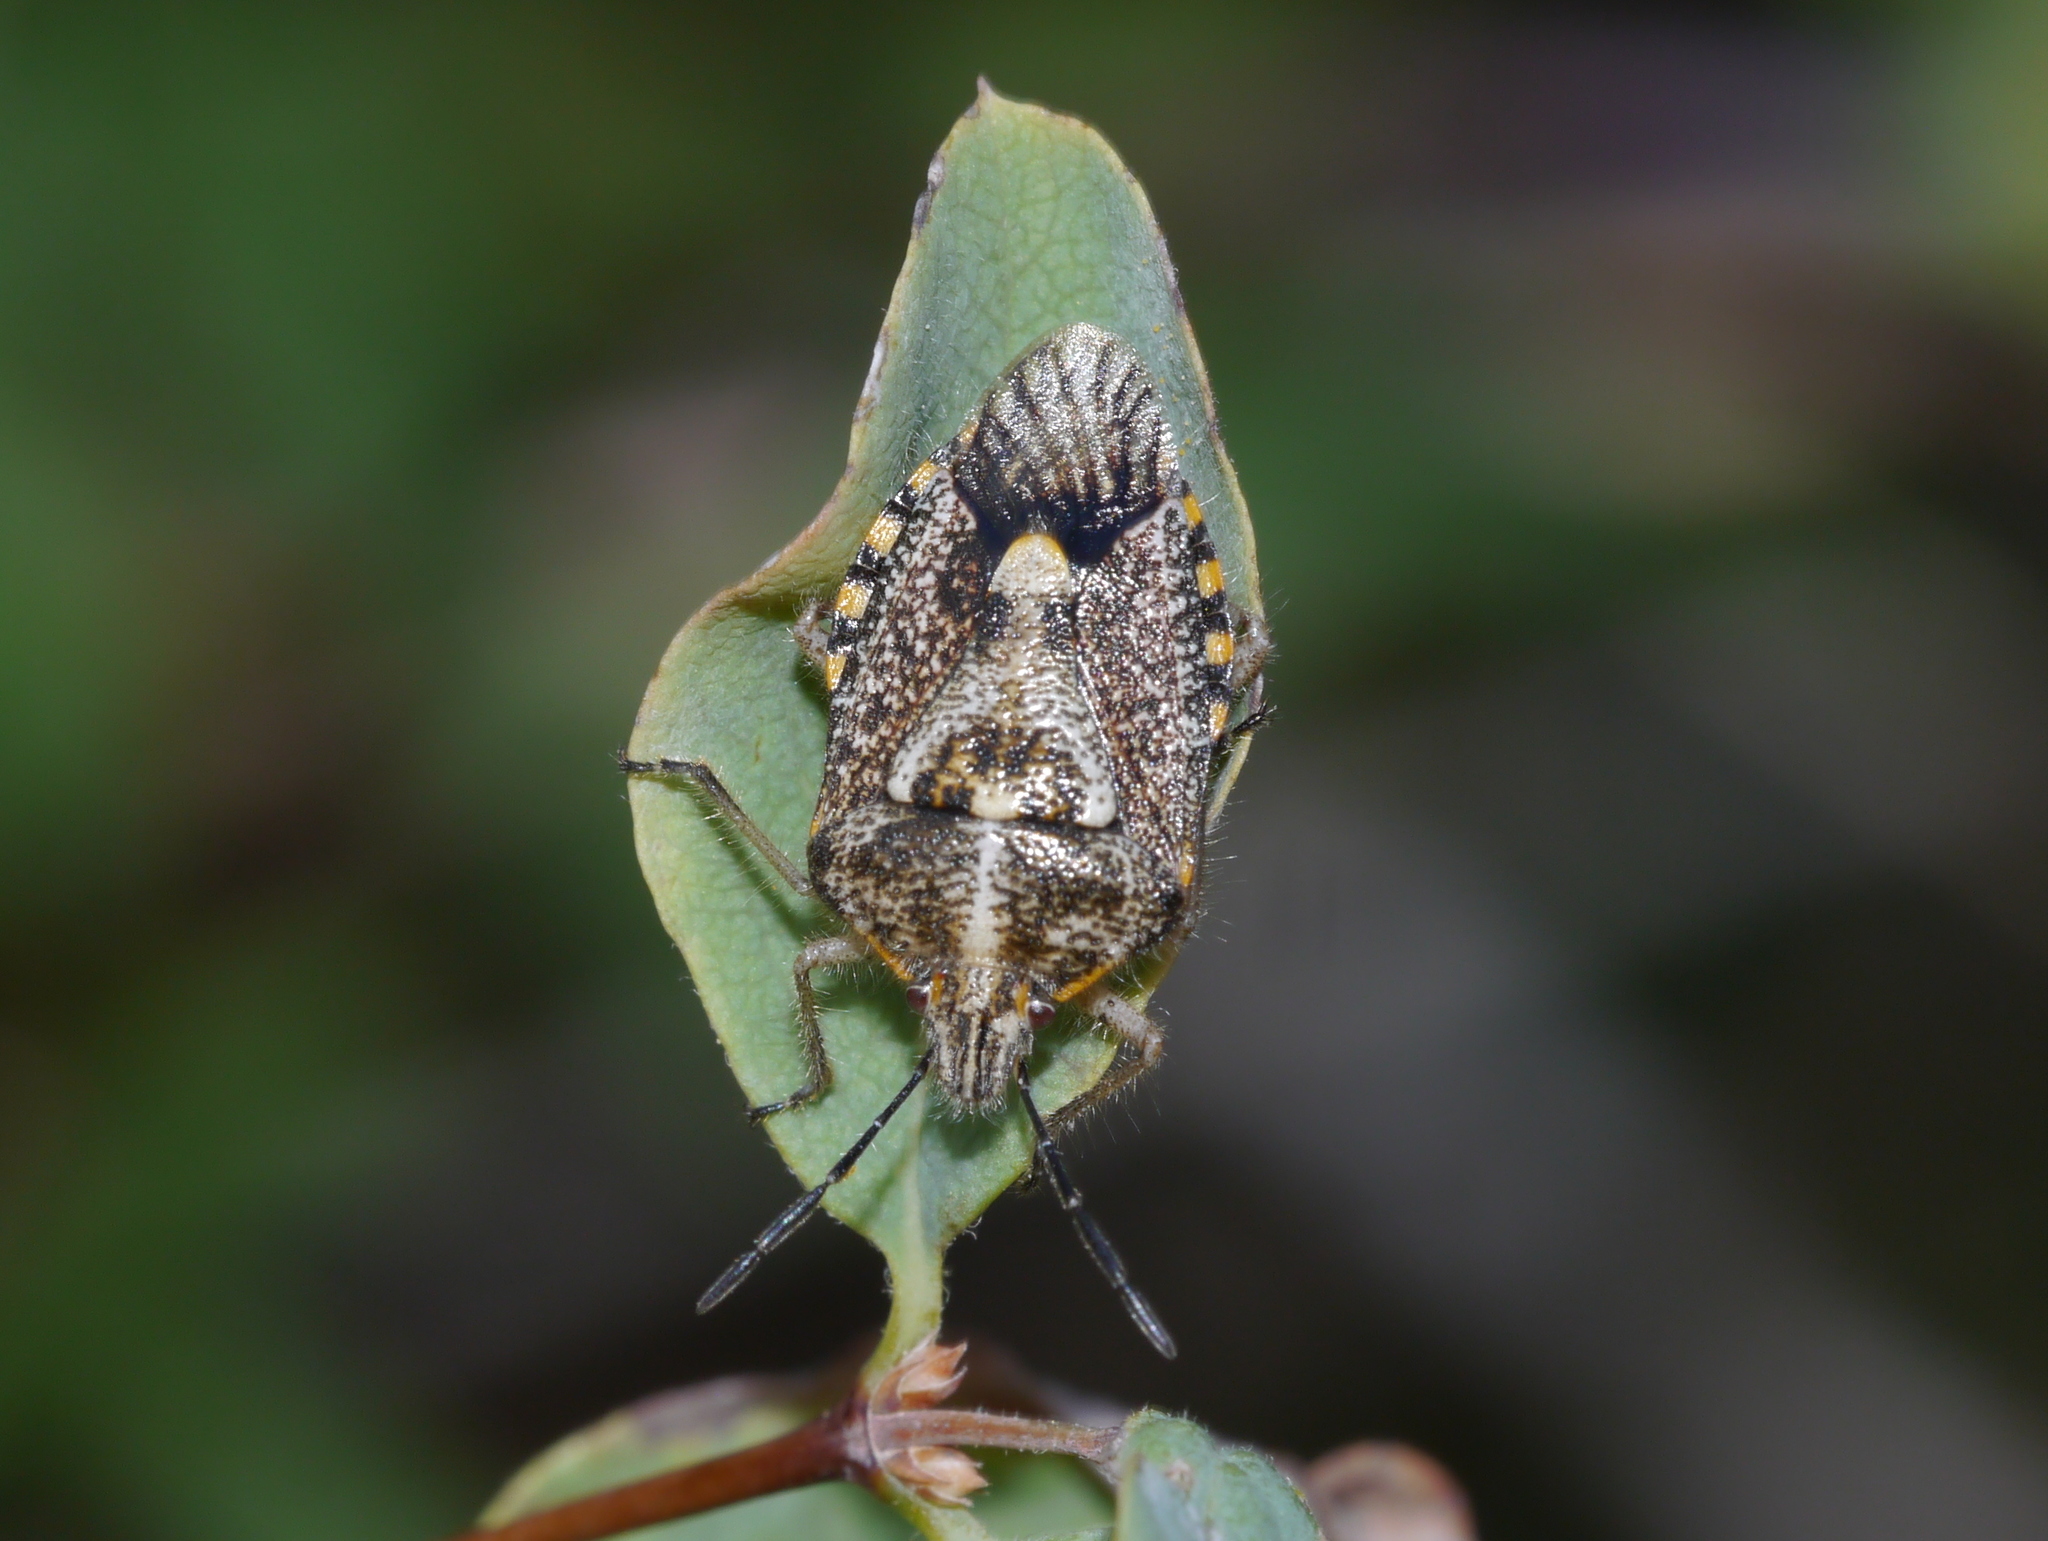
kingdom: Animalia
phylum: Arthropoda
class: Insecta
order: Hemiptera
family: Pentatomidae
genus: Agonoscelis
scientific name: Agonoscelis puberula
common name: African cluster bug
